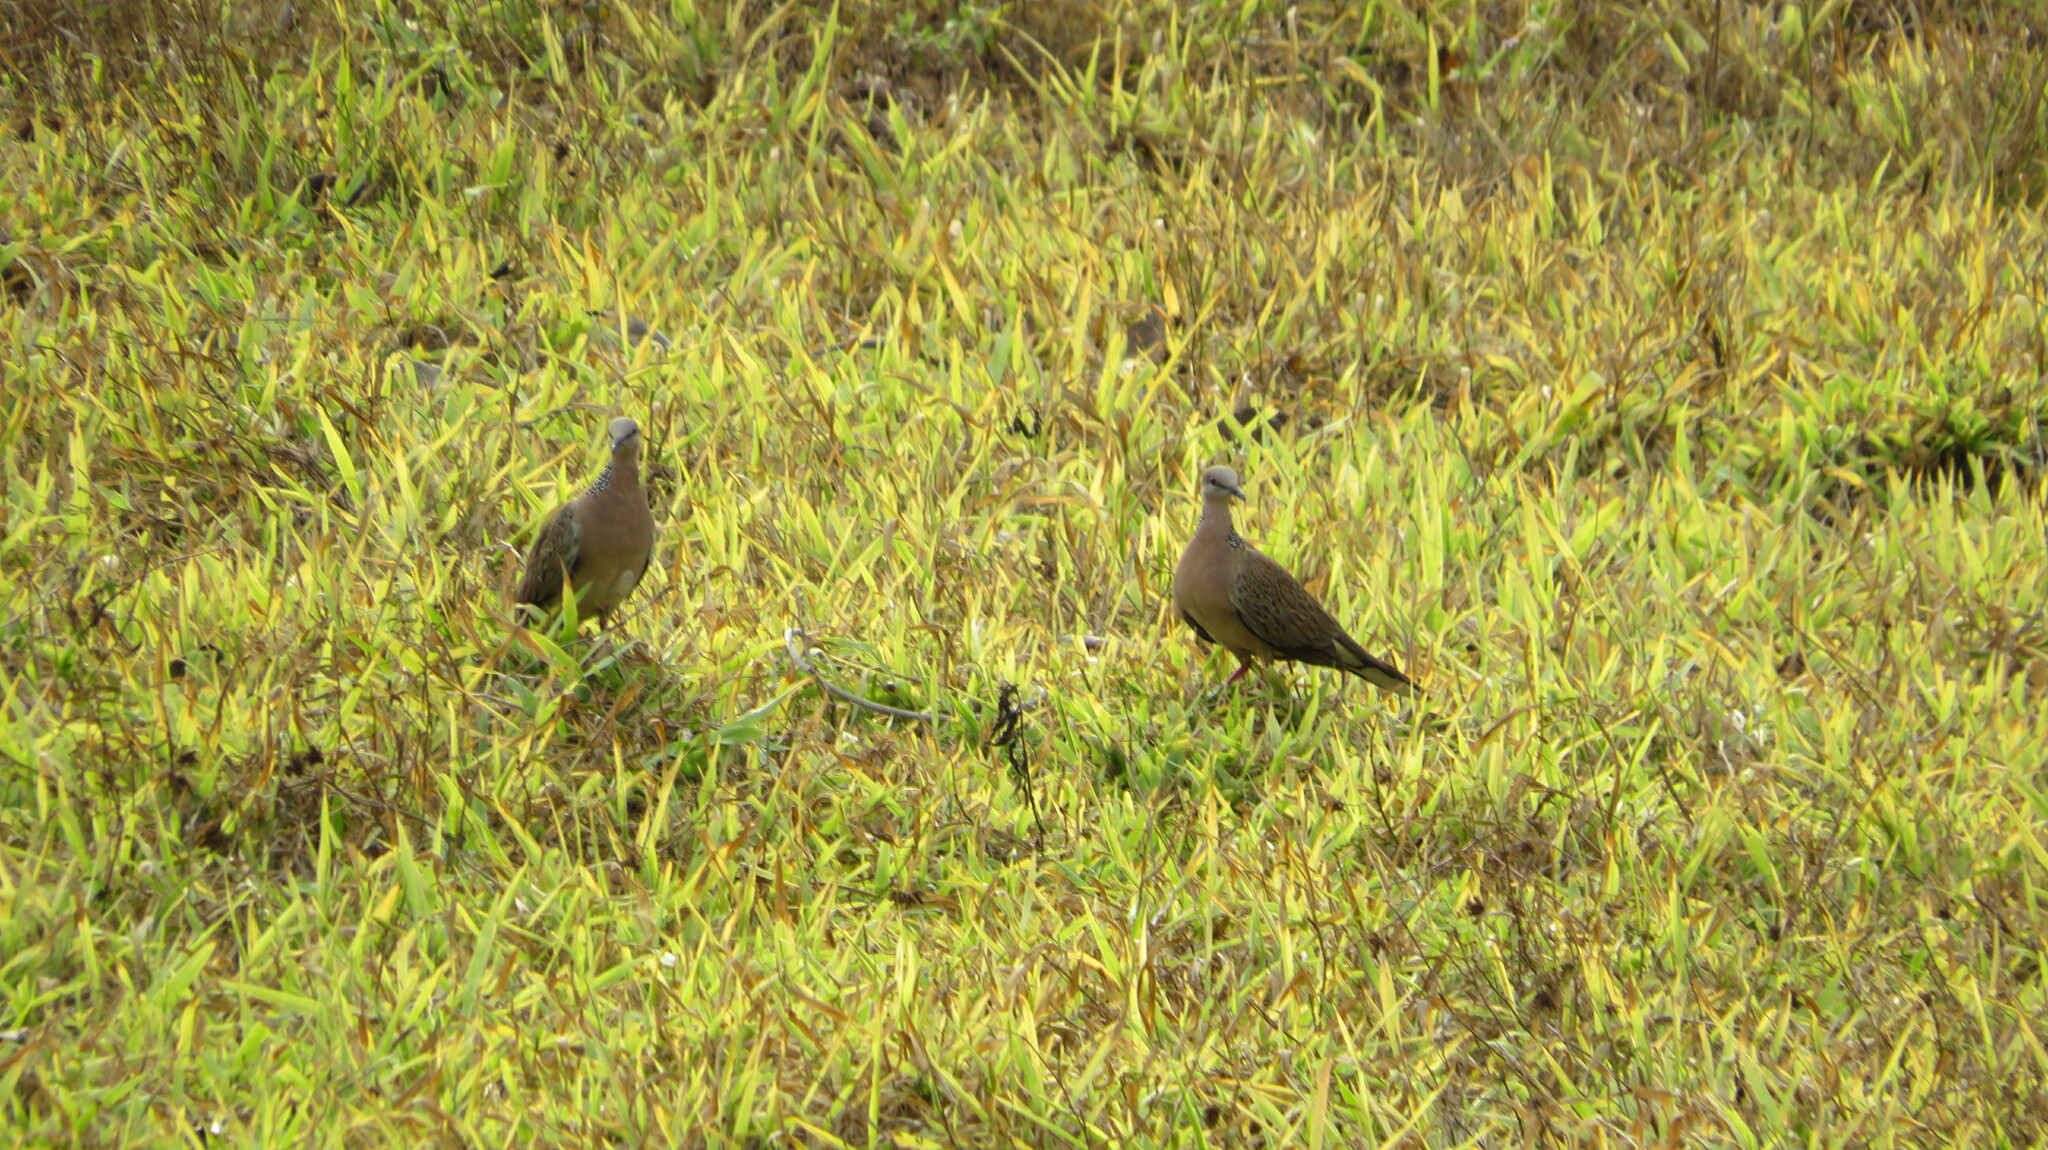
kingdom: Animalia
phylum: Chordata
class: Aves
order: Columbiformes
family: Columbidae
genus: Spilopelia
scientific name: Spilopelia chinensis
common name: Spotted dove
